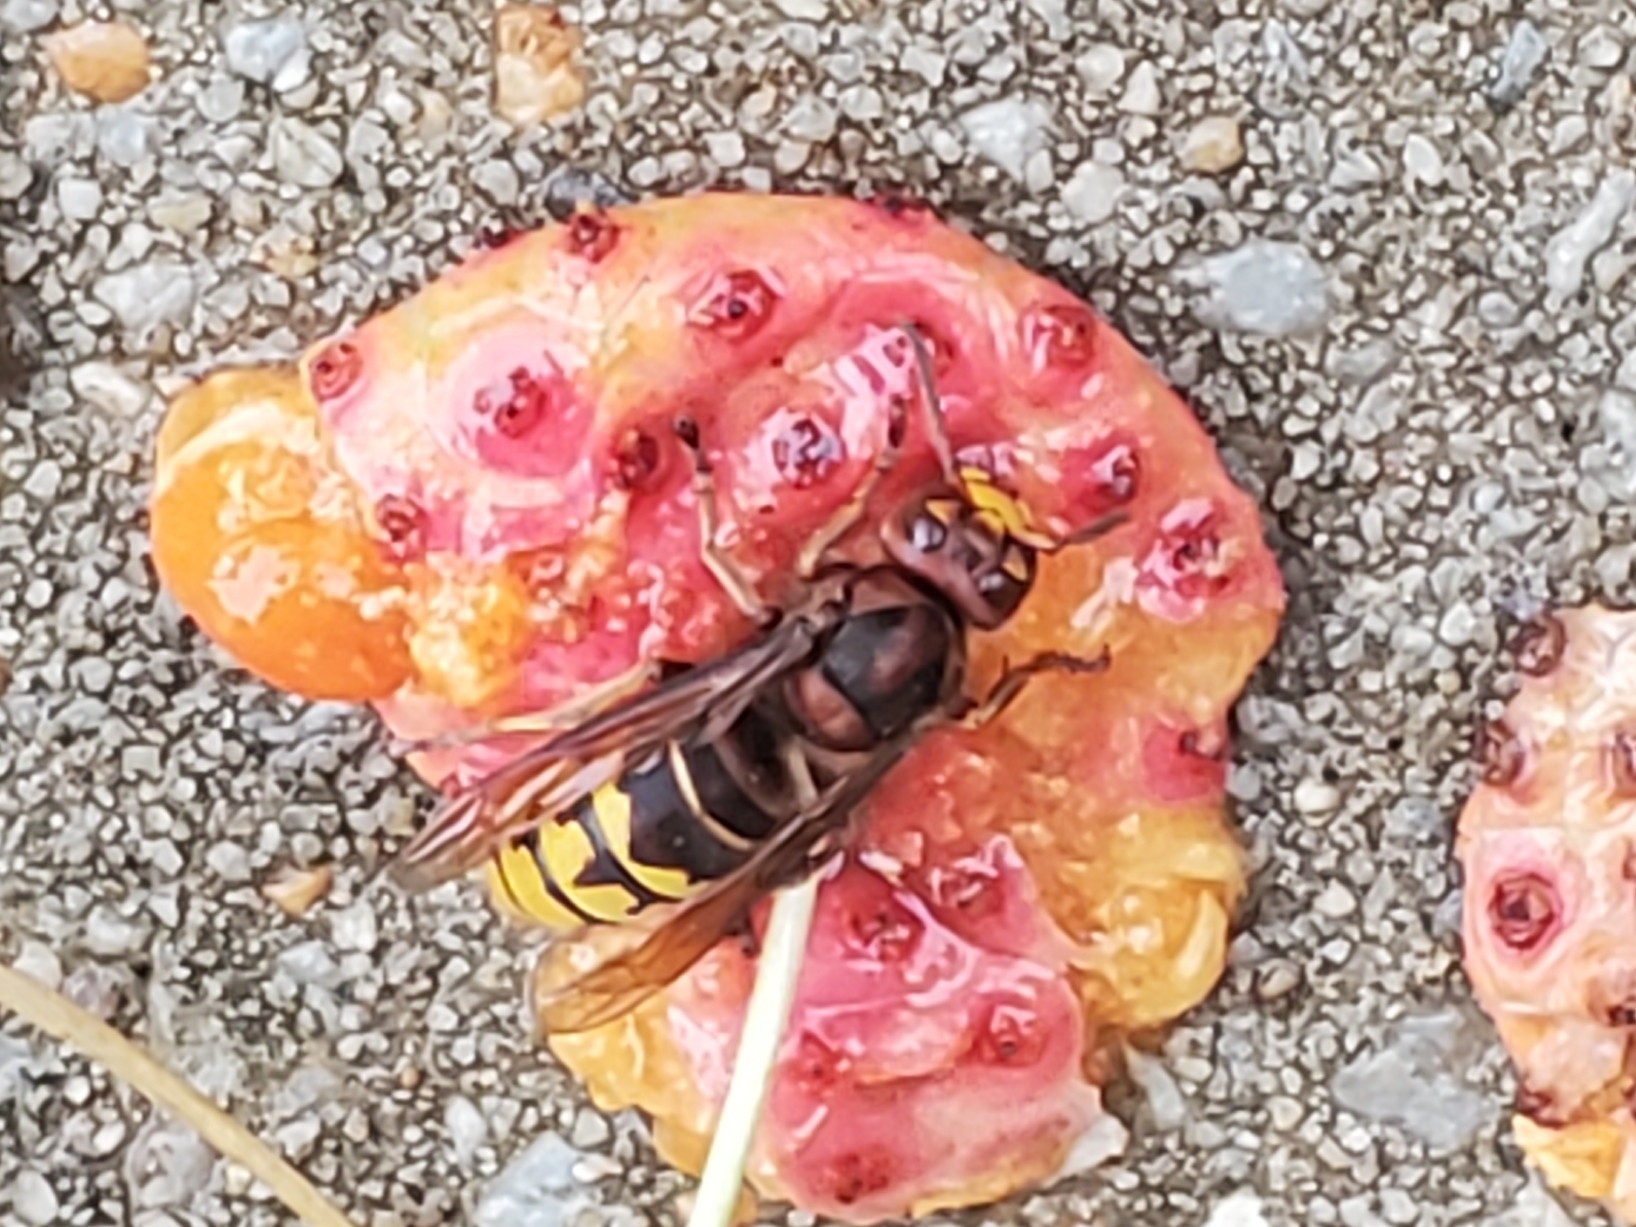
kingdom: Animalia
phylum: Arthropoda
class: Insecta
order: Hymenoptera
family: Vespidae
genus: Vespa
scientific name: Vespa crabro
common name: Hornet
